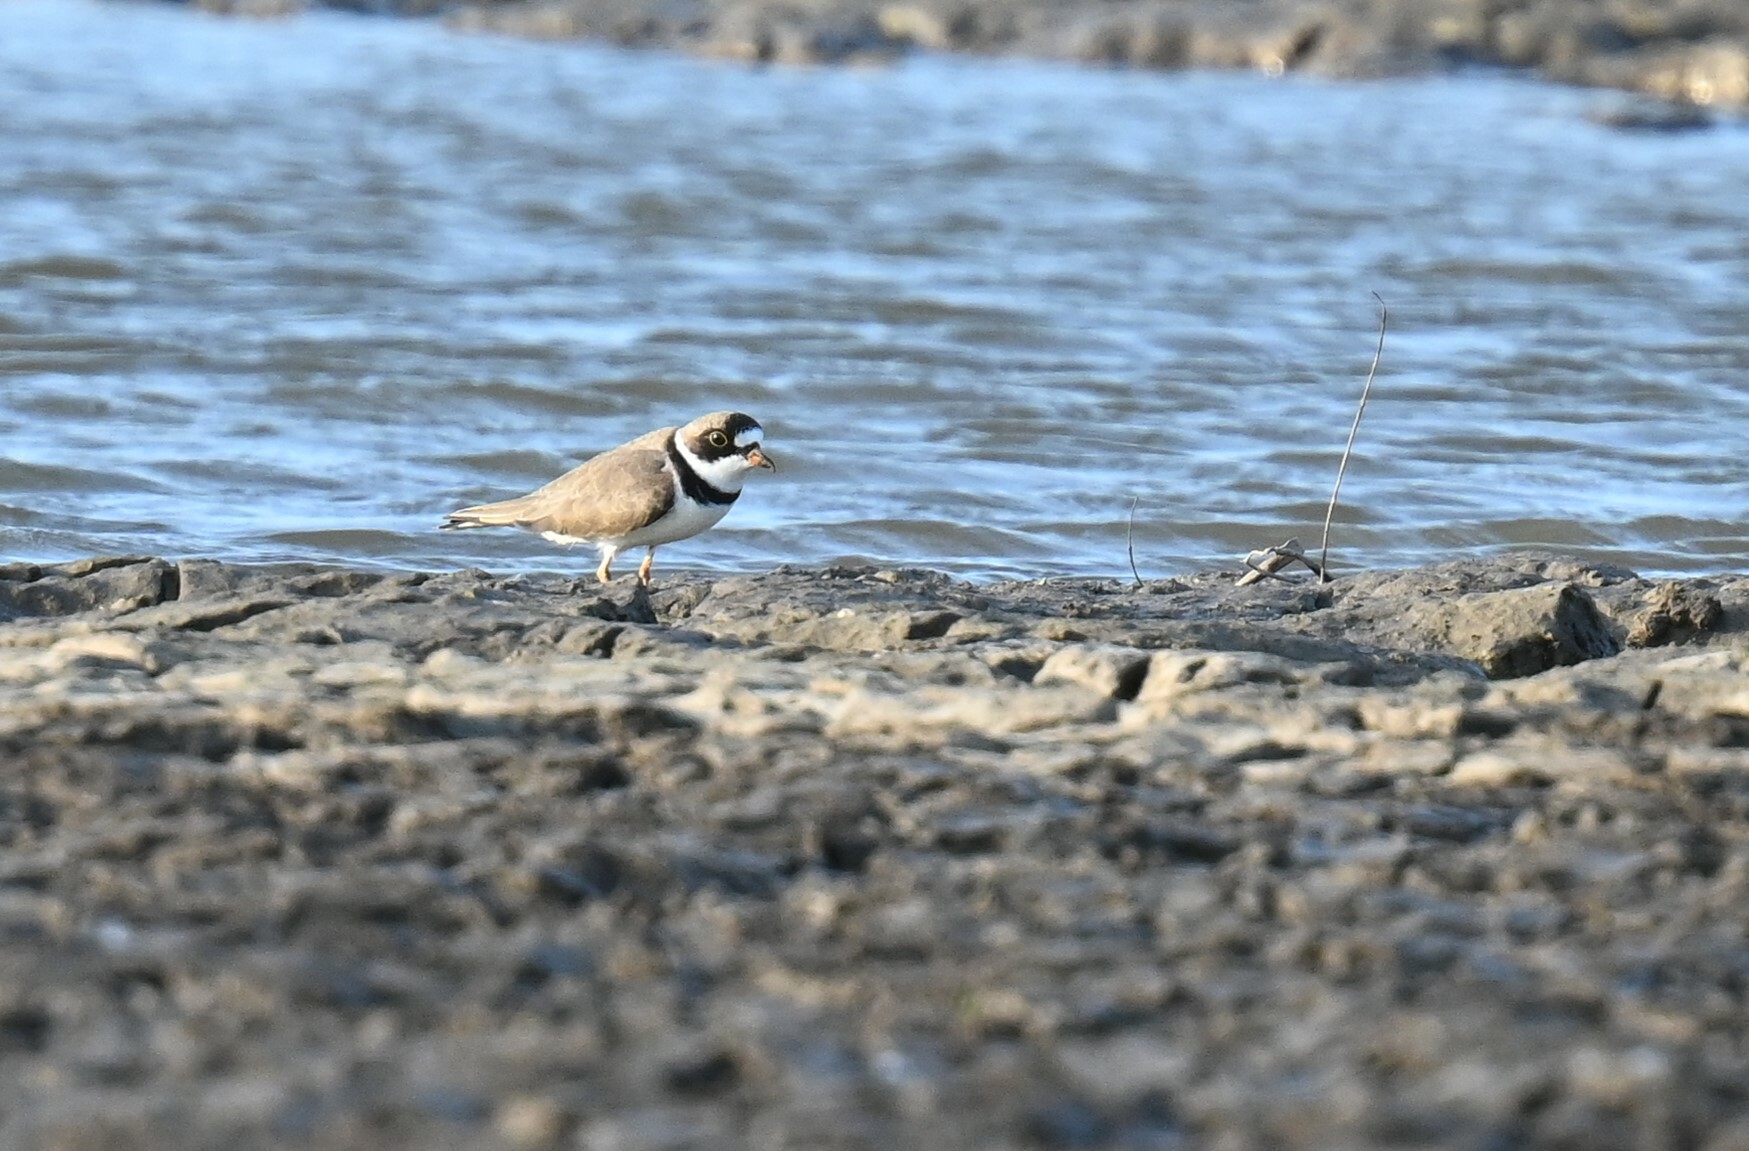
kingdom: Animalia
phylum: Chordata
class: Aves
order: Charadriiformes
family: Charadriidae
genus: Charadrius
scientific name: Charadrius semipalmatus
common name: Semipalmated plover
